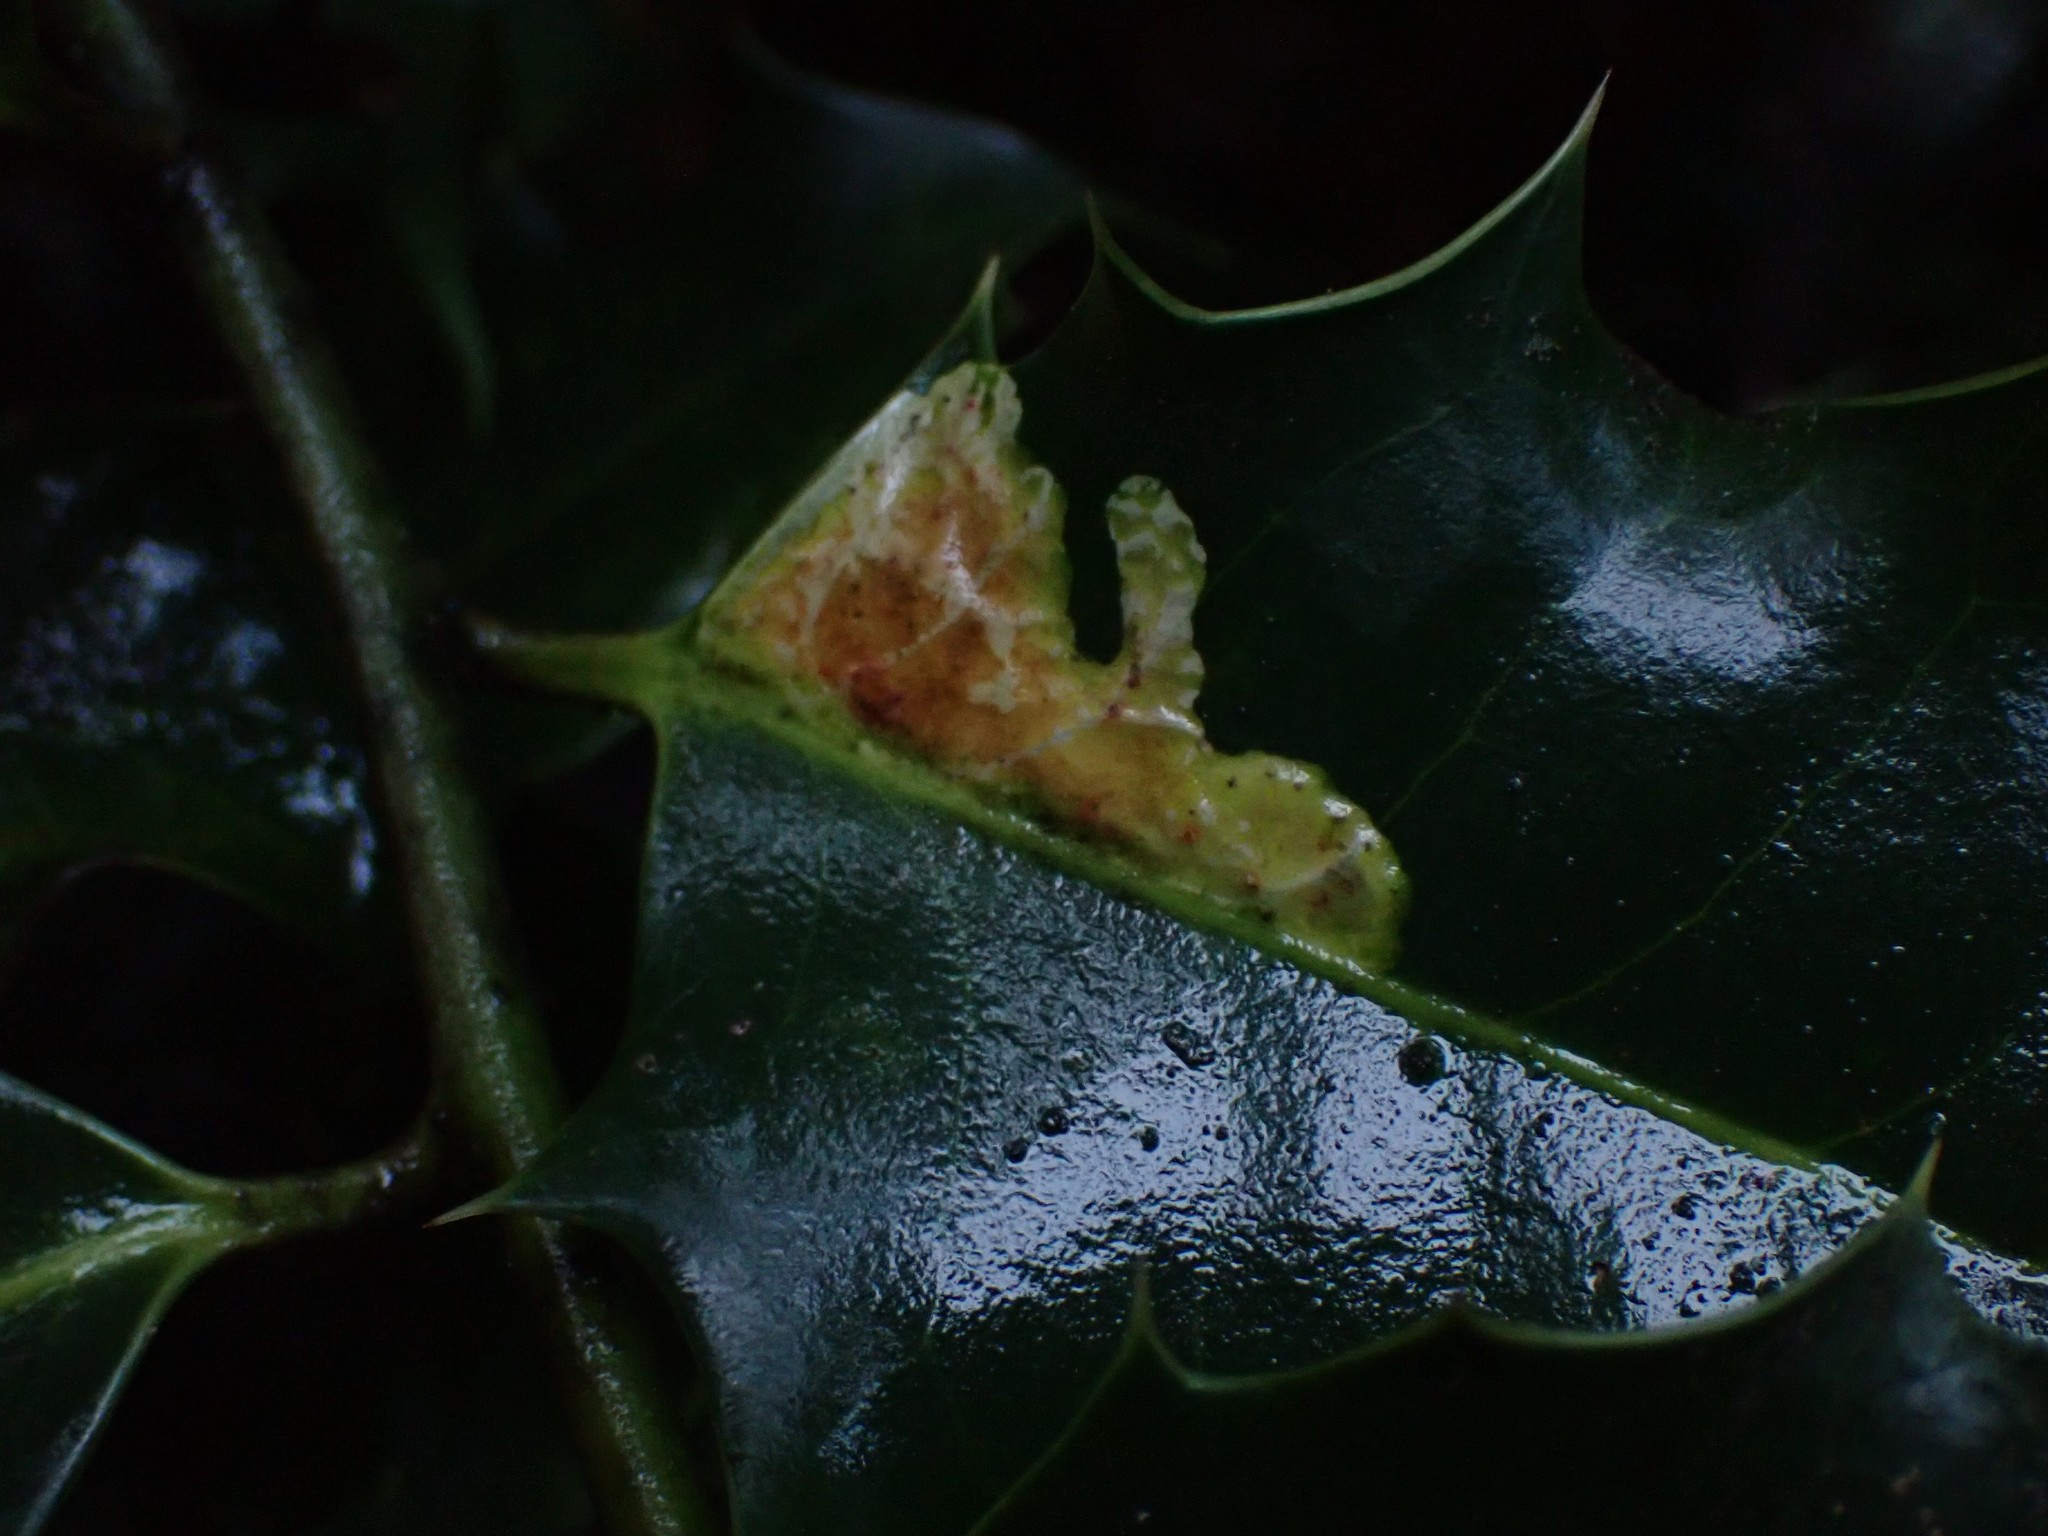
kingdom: Animalia
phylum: Arthropoda
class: Insecta
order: Diptera
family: Agromyzidae
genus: Phytomyza
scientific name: Phytomyza ilicis
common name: Holly leafminer
